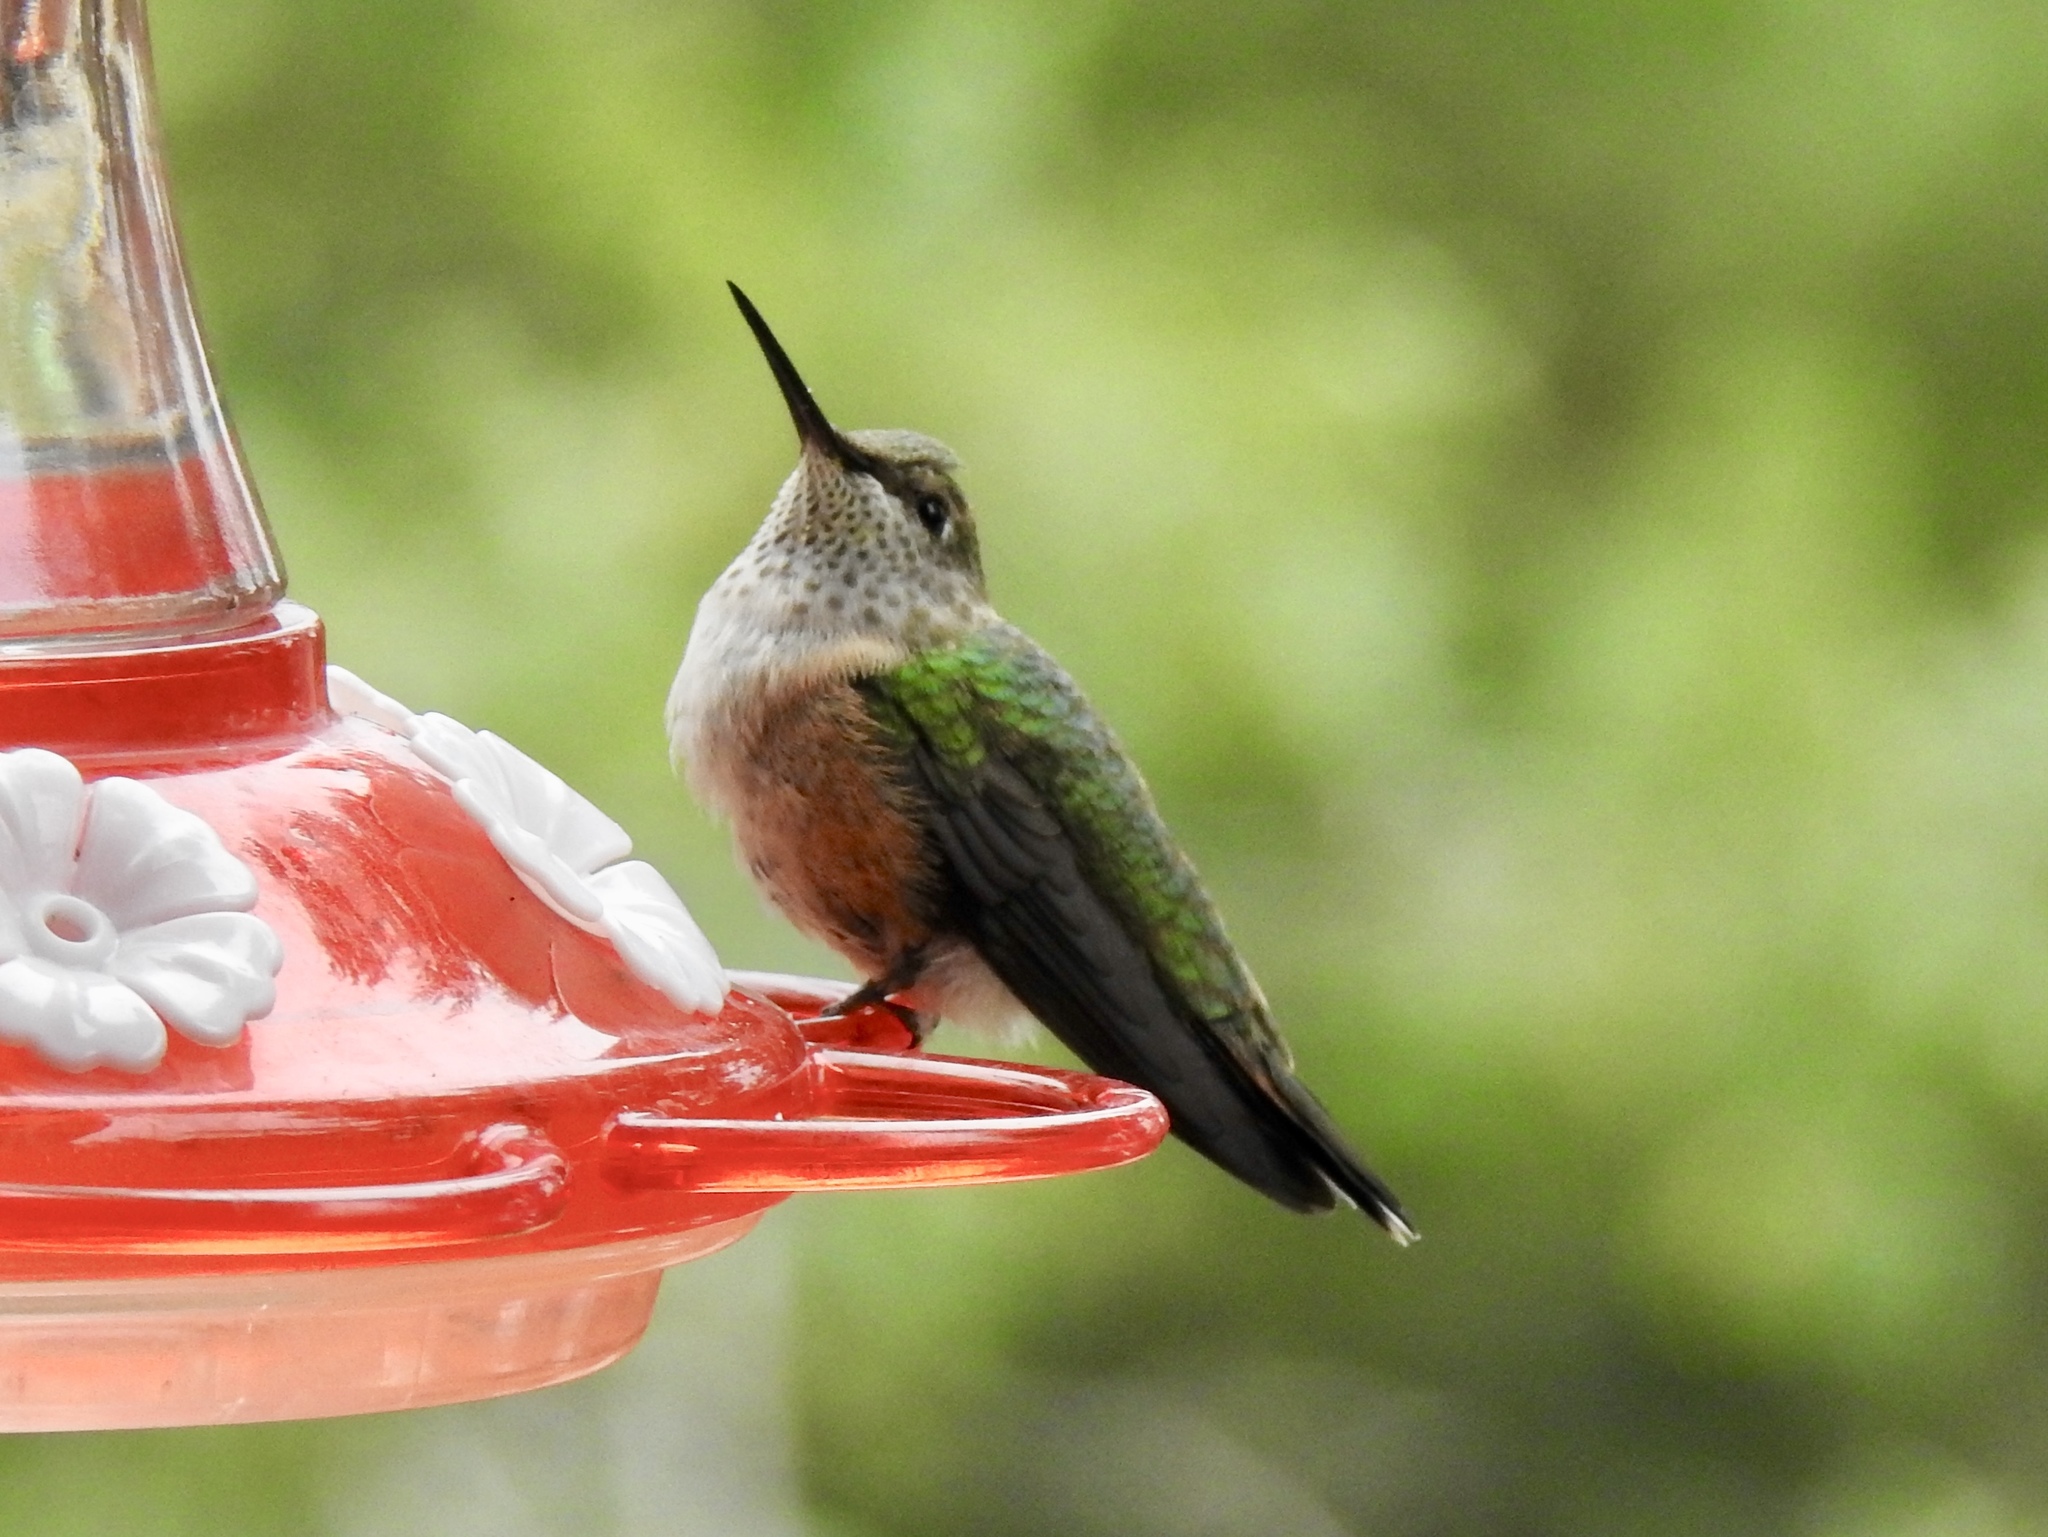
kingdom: Animalia
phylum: Chordata
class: Aves
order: Apodiformes
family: Trochilidae
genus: Selasphorus
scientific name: Selasphorus platycercus
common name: Broad-tailed hummingbird
